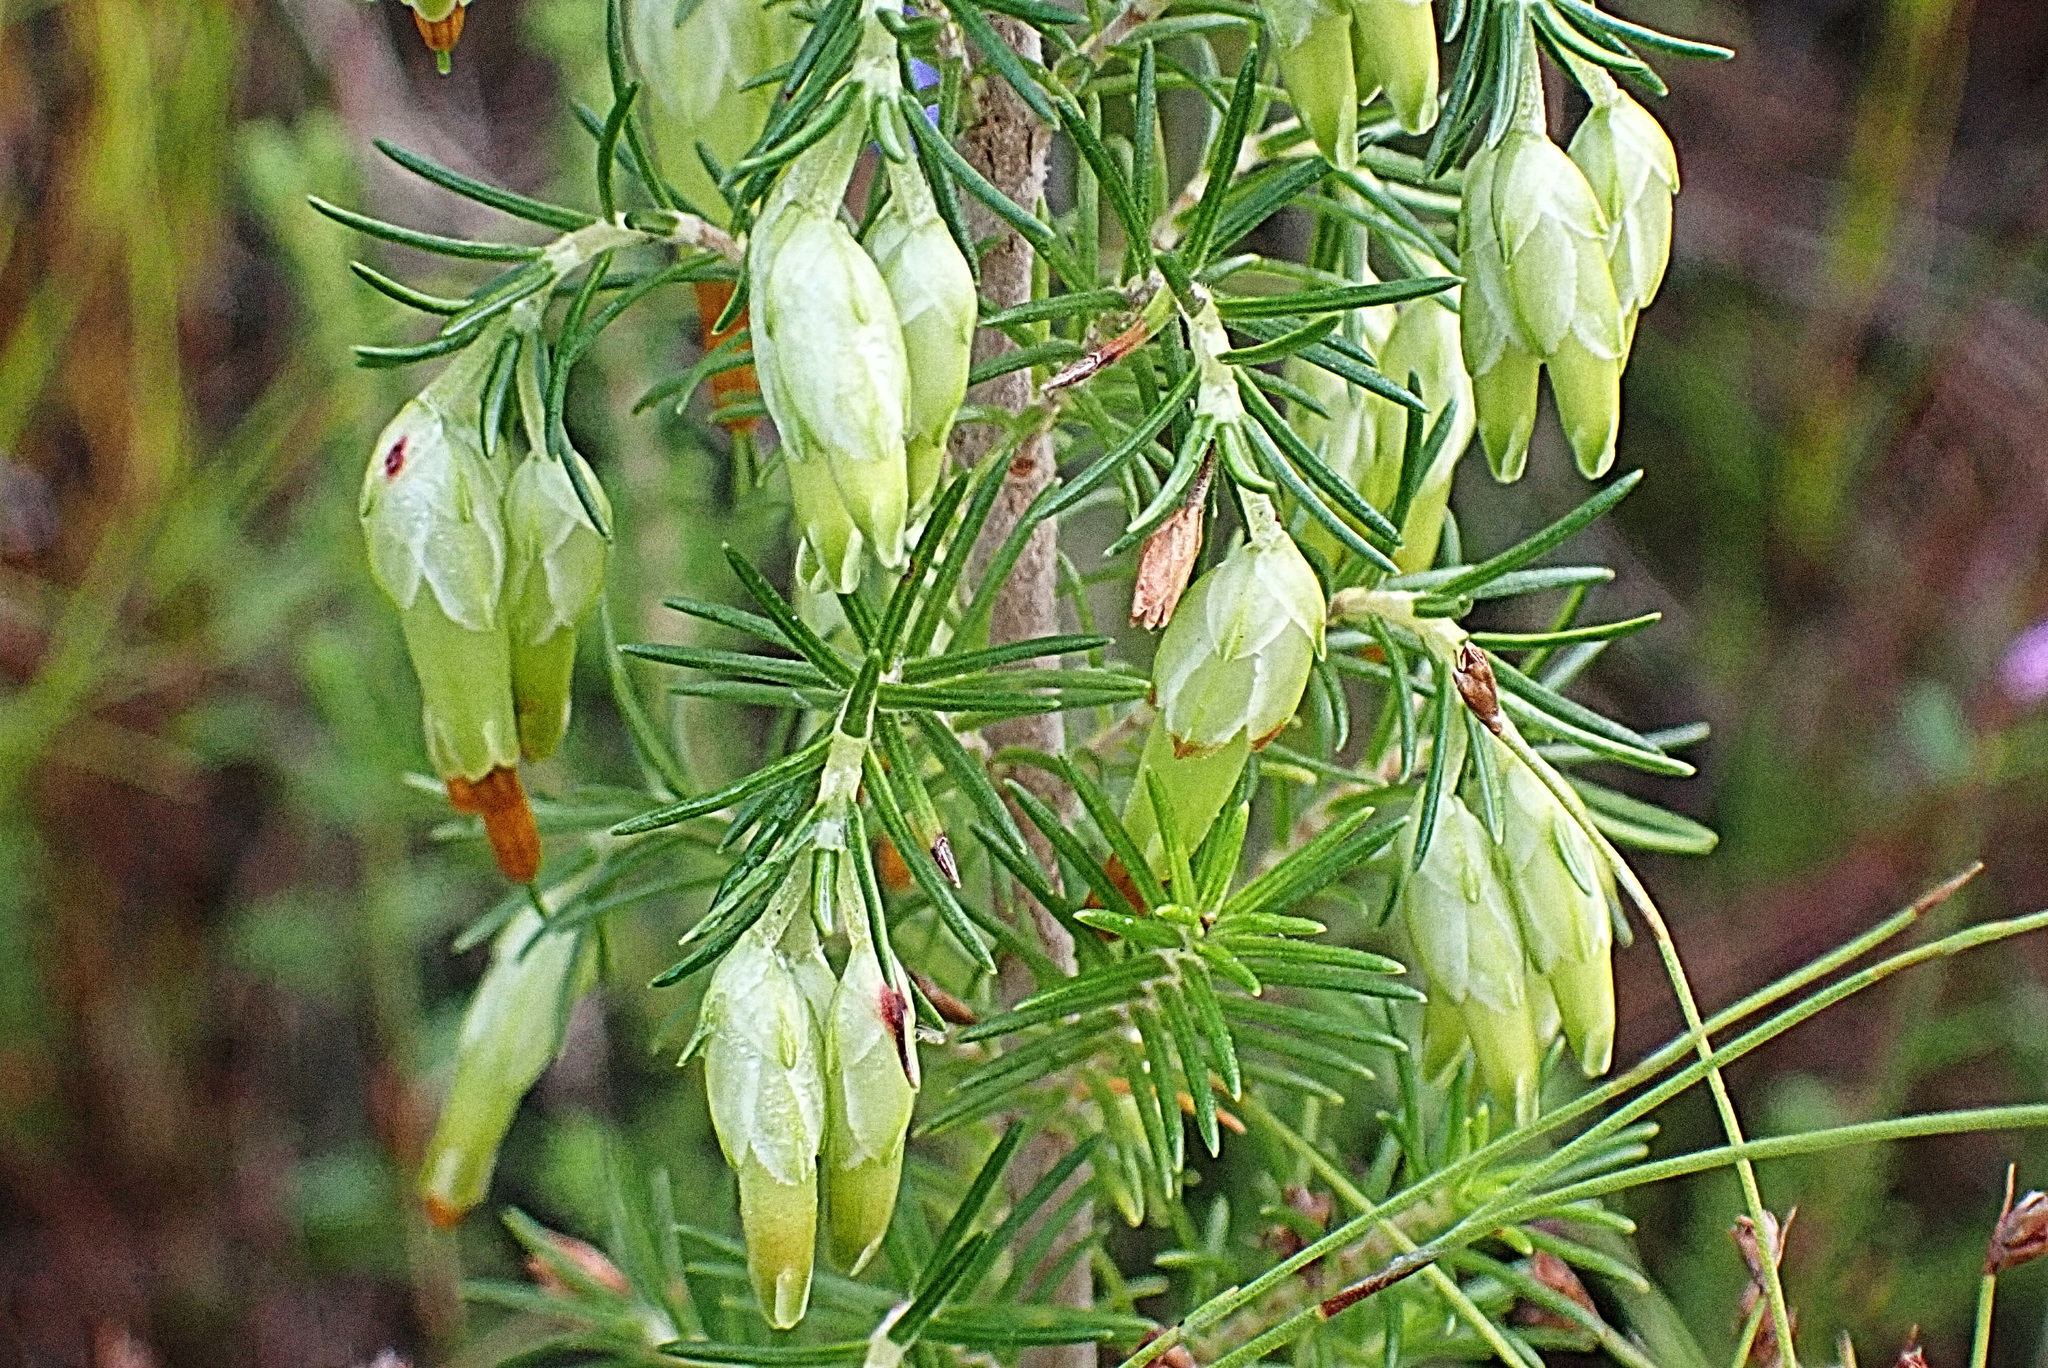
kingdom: Plantae
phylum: Tracheophyta
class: Magnoliopsida
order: Ericales
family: Ericaceae
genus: Erica
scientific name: Erica intermedia
